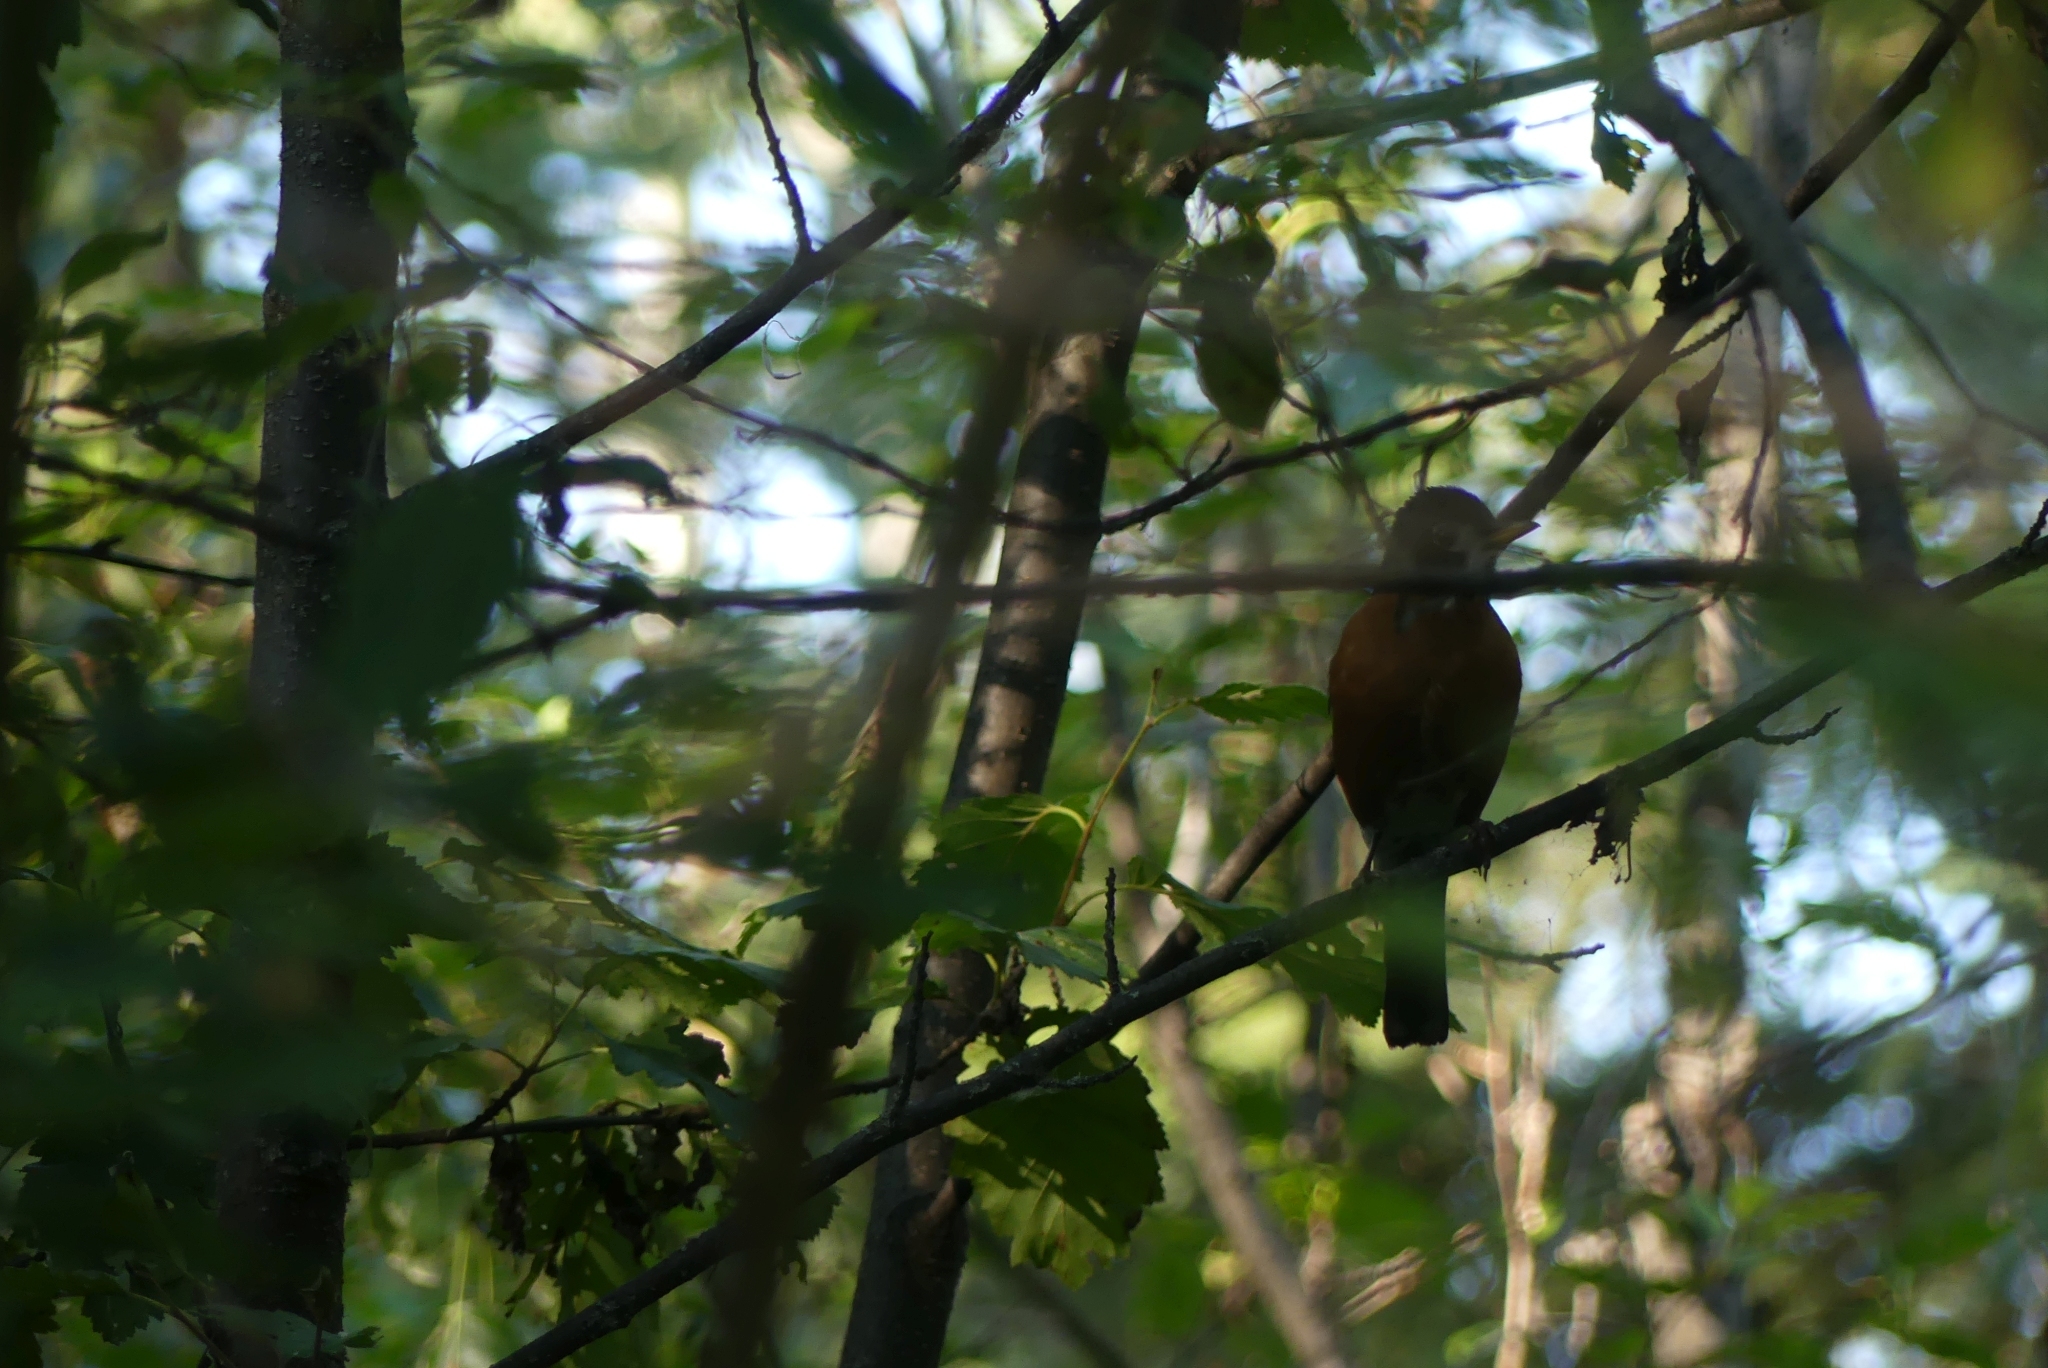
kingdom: Animalia
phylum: Chordata
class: Aves
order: Passeriformes
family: Turdidae
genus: Turdus
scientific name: Turdus migratorius
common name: American robin
